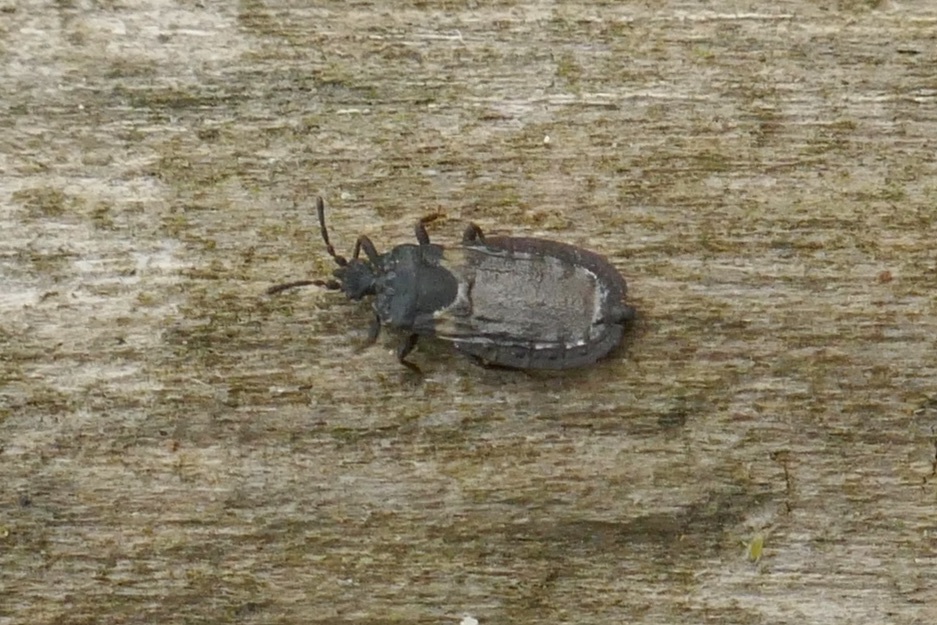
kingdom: Animalia
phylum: Arthropoda
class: Insecta
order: Hemiptera
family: Aradidae
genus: Aneurus
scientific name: Aneurus avenius
